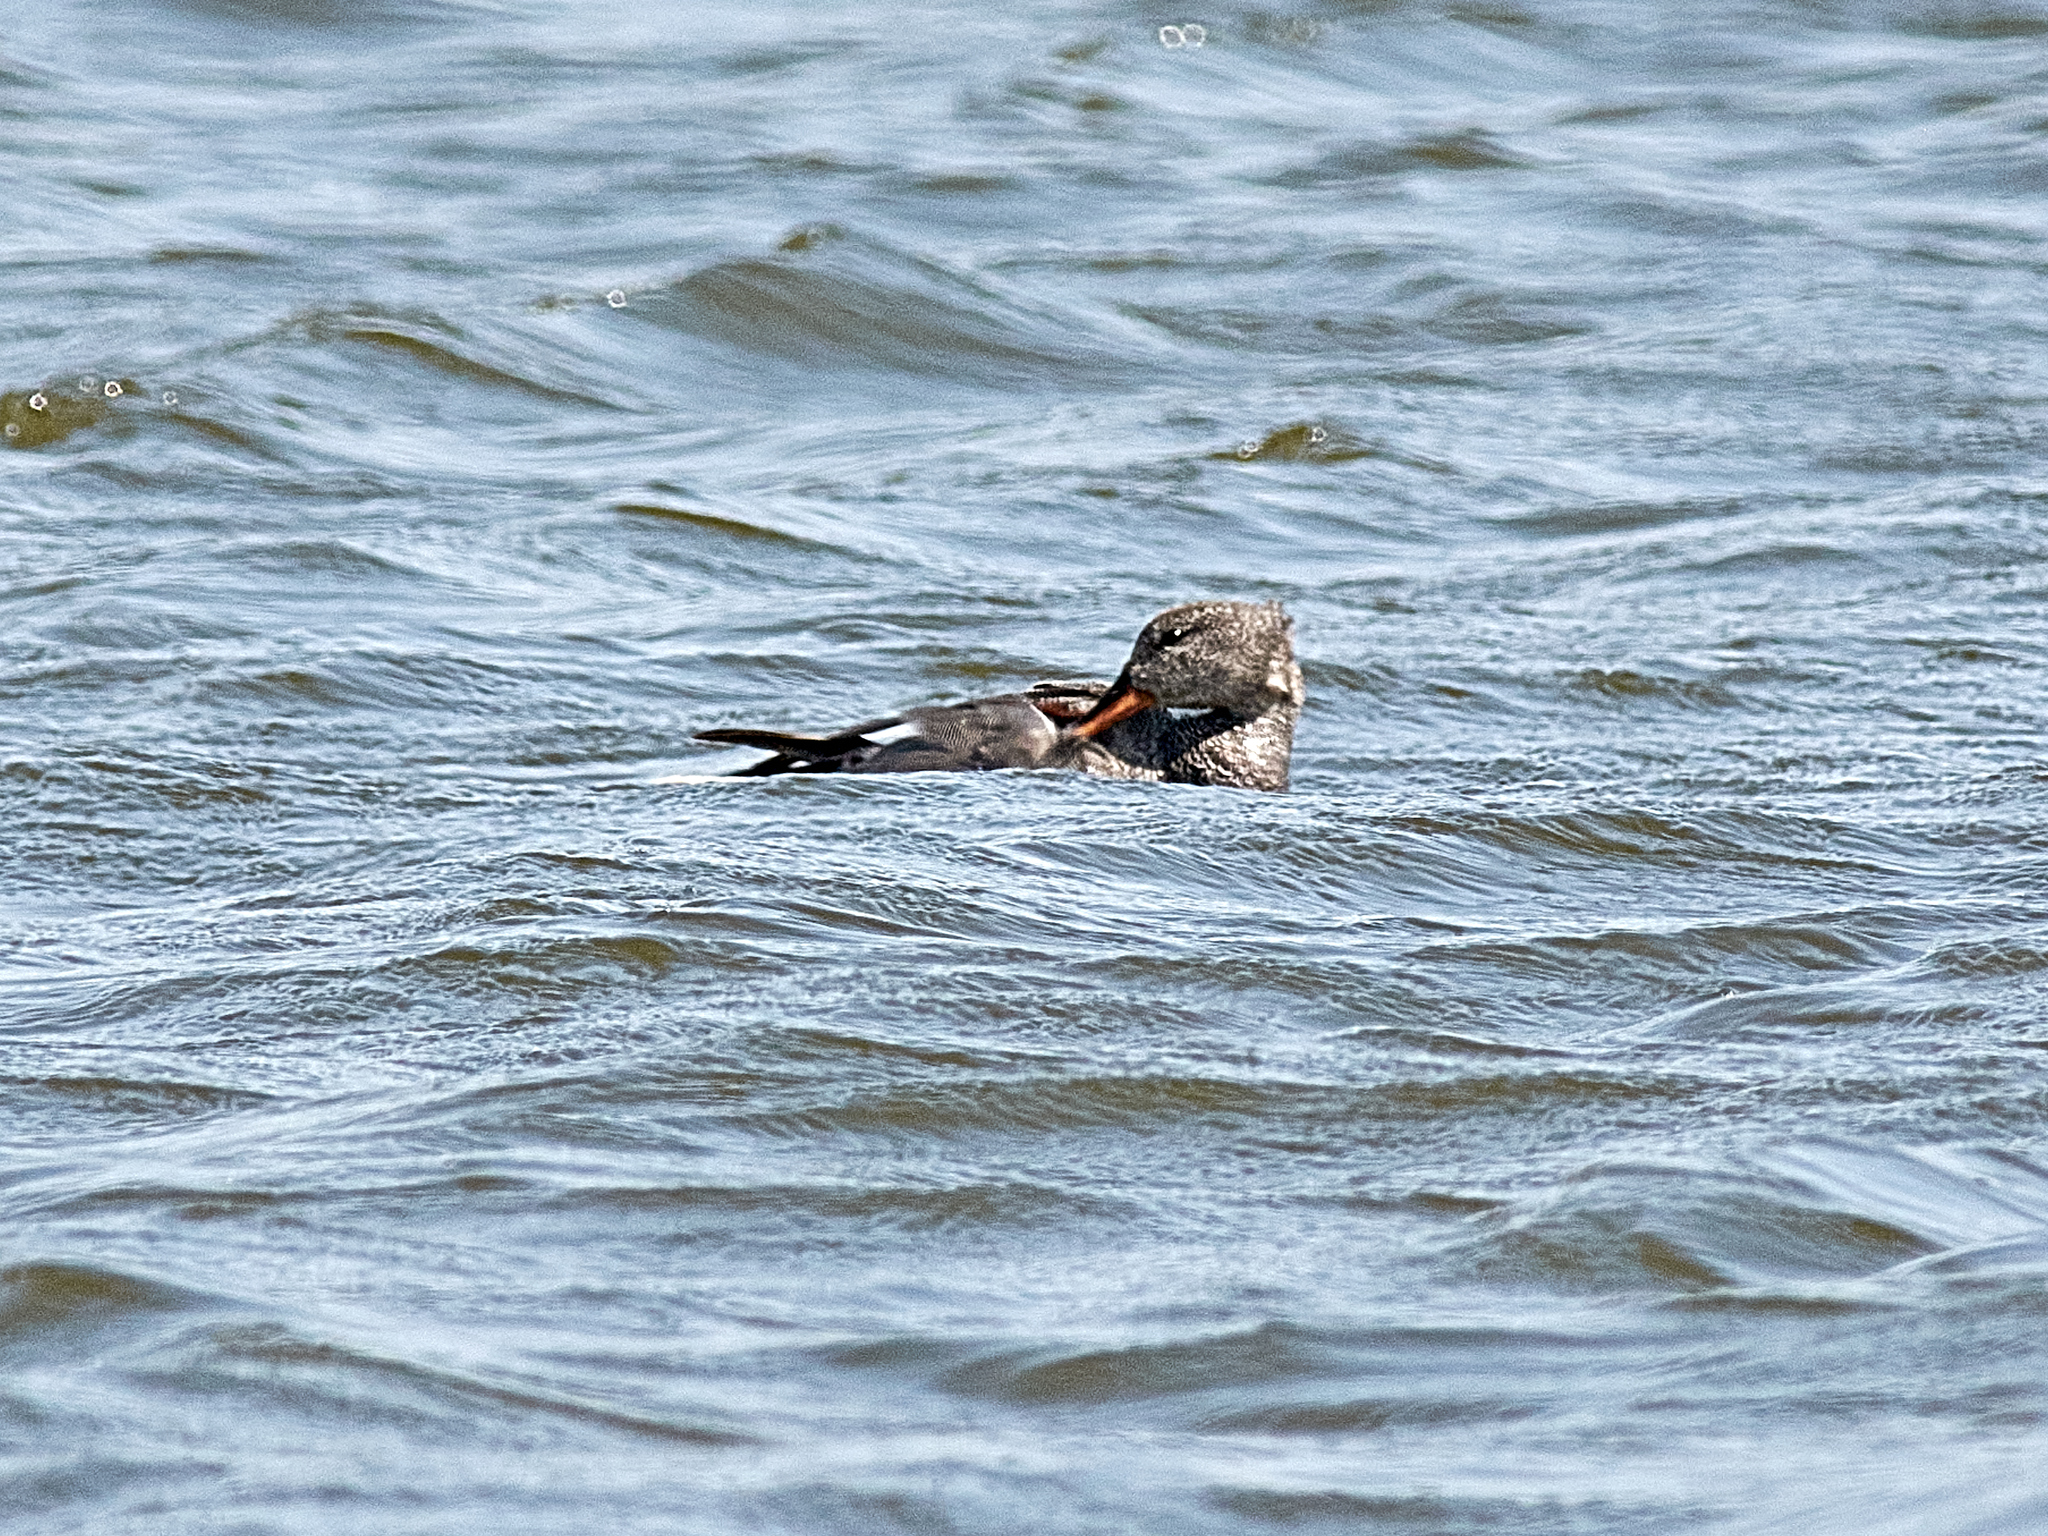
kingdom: Animalia
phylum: Chordata
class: Aves
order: Anseriformes
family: Anatidae
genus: Mareca
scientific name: Mareca strepera
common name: Gadwall
